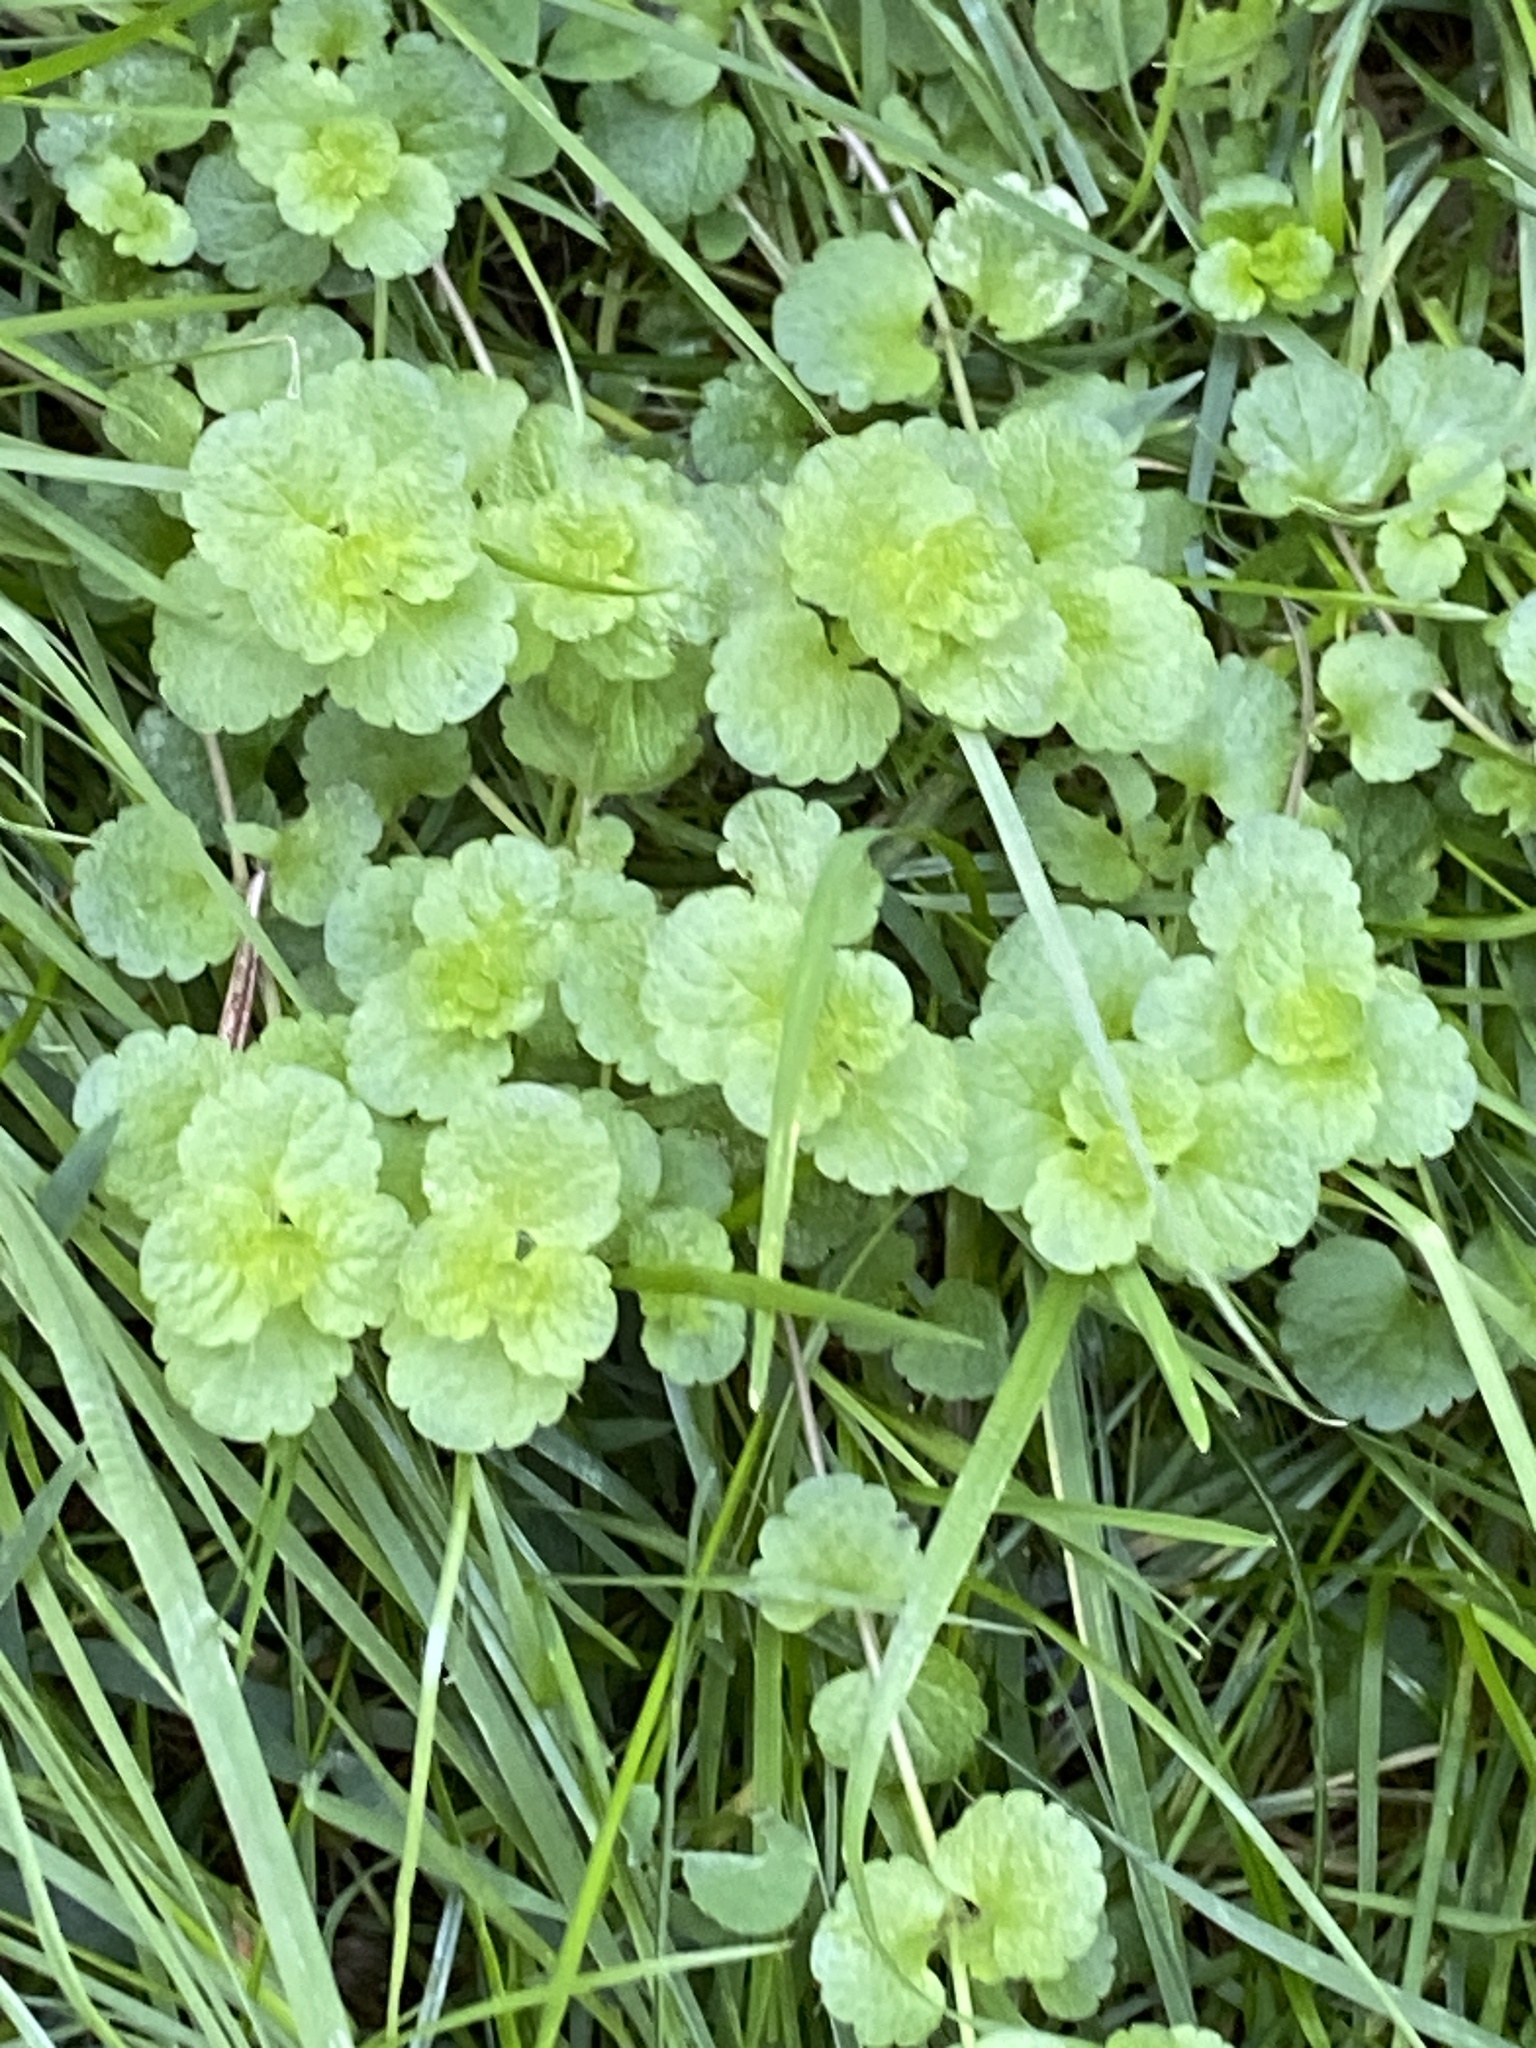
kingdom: Plantae
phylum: Tracheophyta
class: Magnoliopsida
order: Lamiales
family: Plantaginaceae
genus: Veronica
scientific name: Veronica filiformis
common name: Slender speedwell
